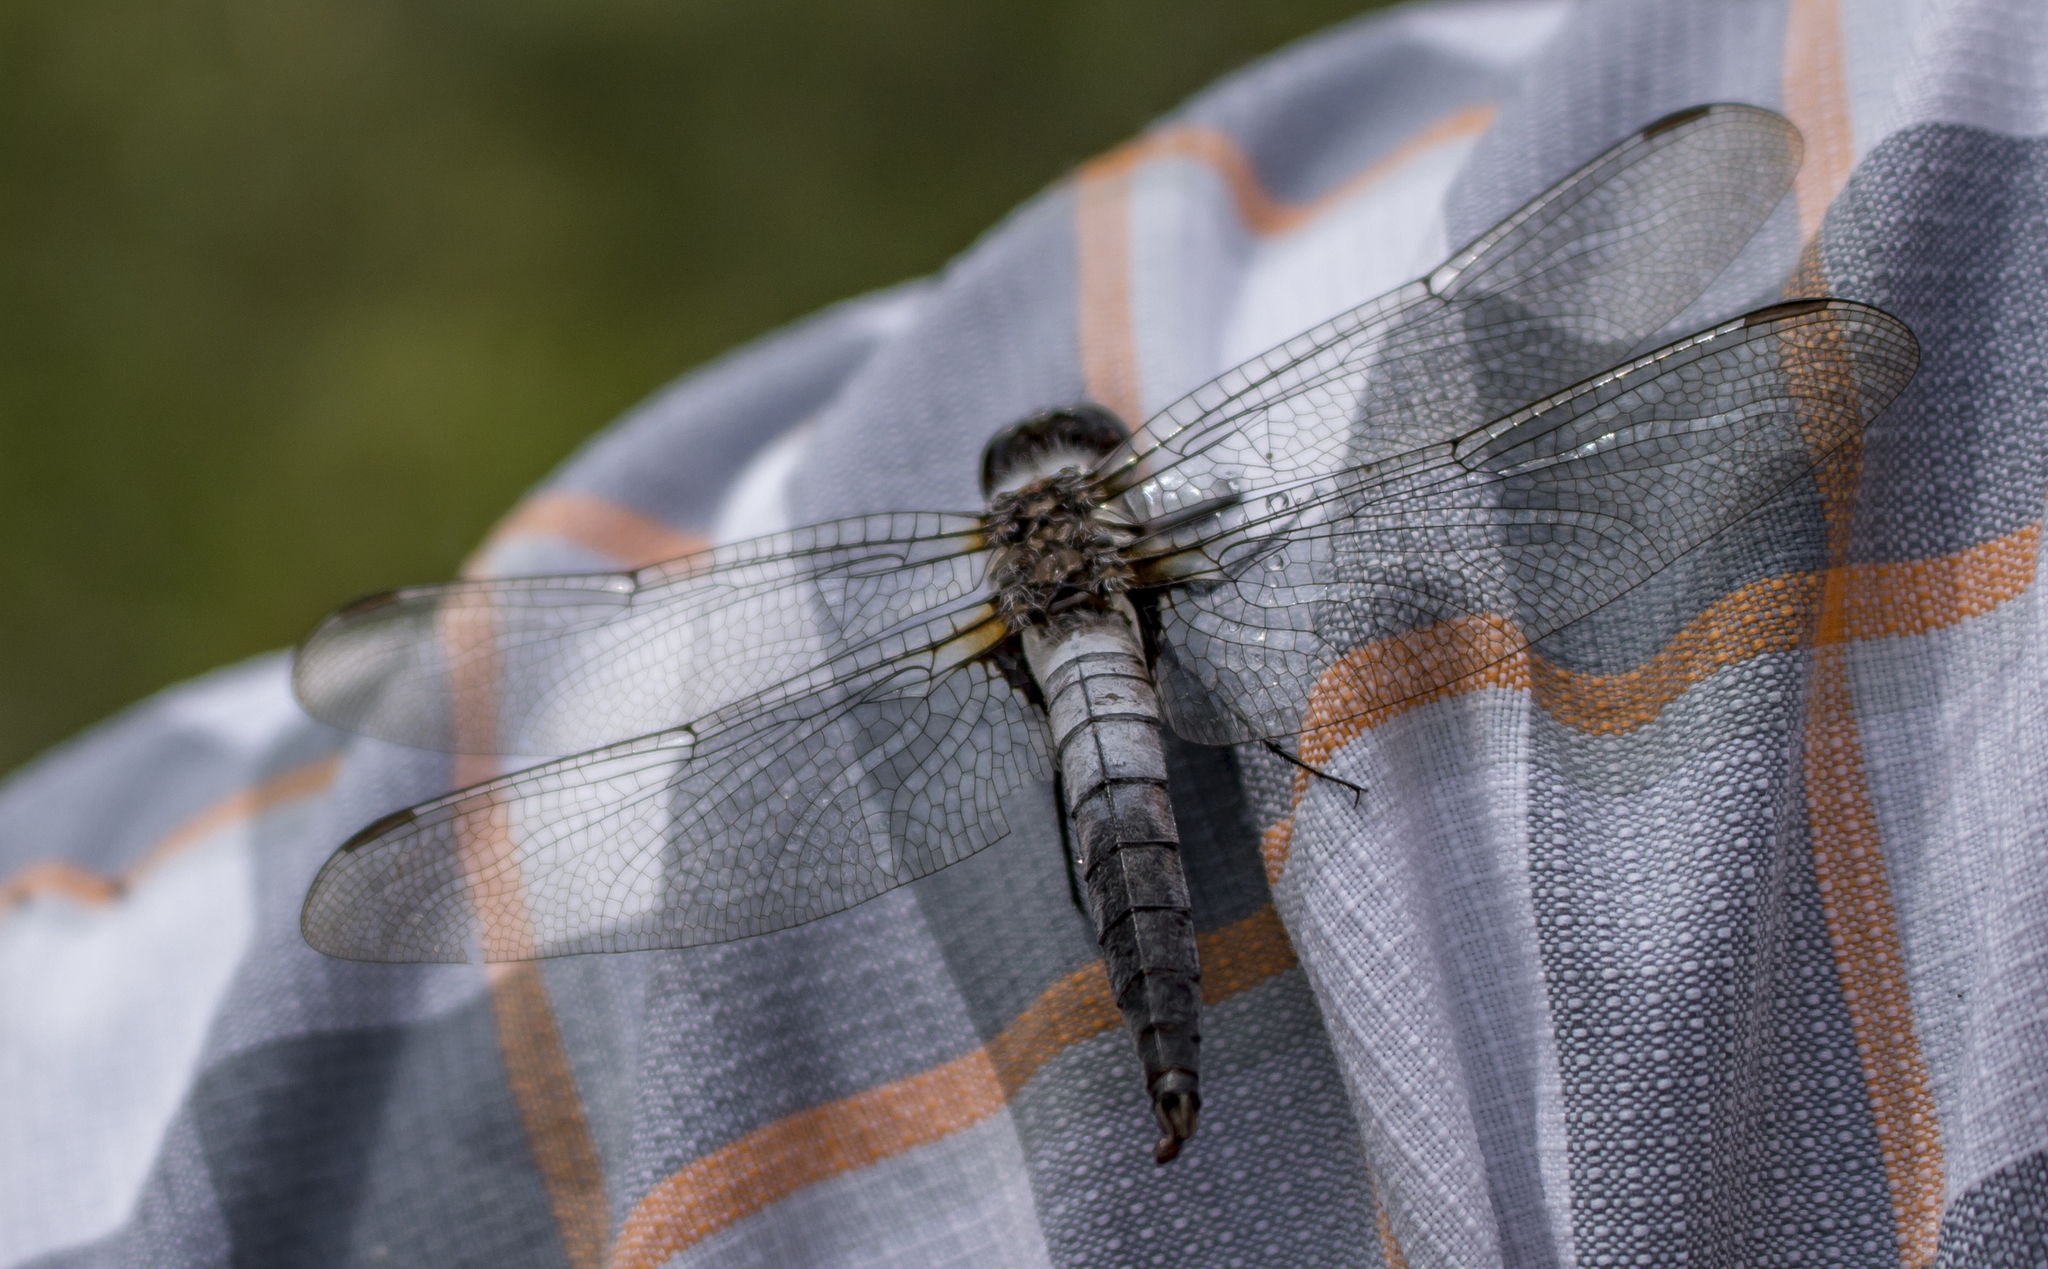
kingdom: Animalia
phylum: Arthropoda
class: Insecta
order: Odonata
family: Libellulidae
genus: Ladona
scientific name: Ladona julia
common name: Chalk-fronted corporal
